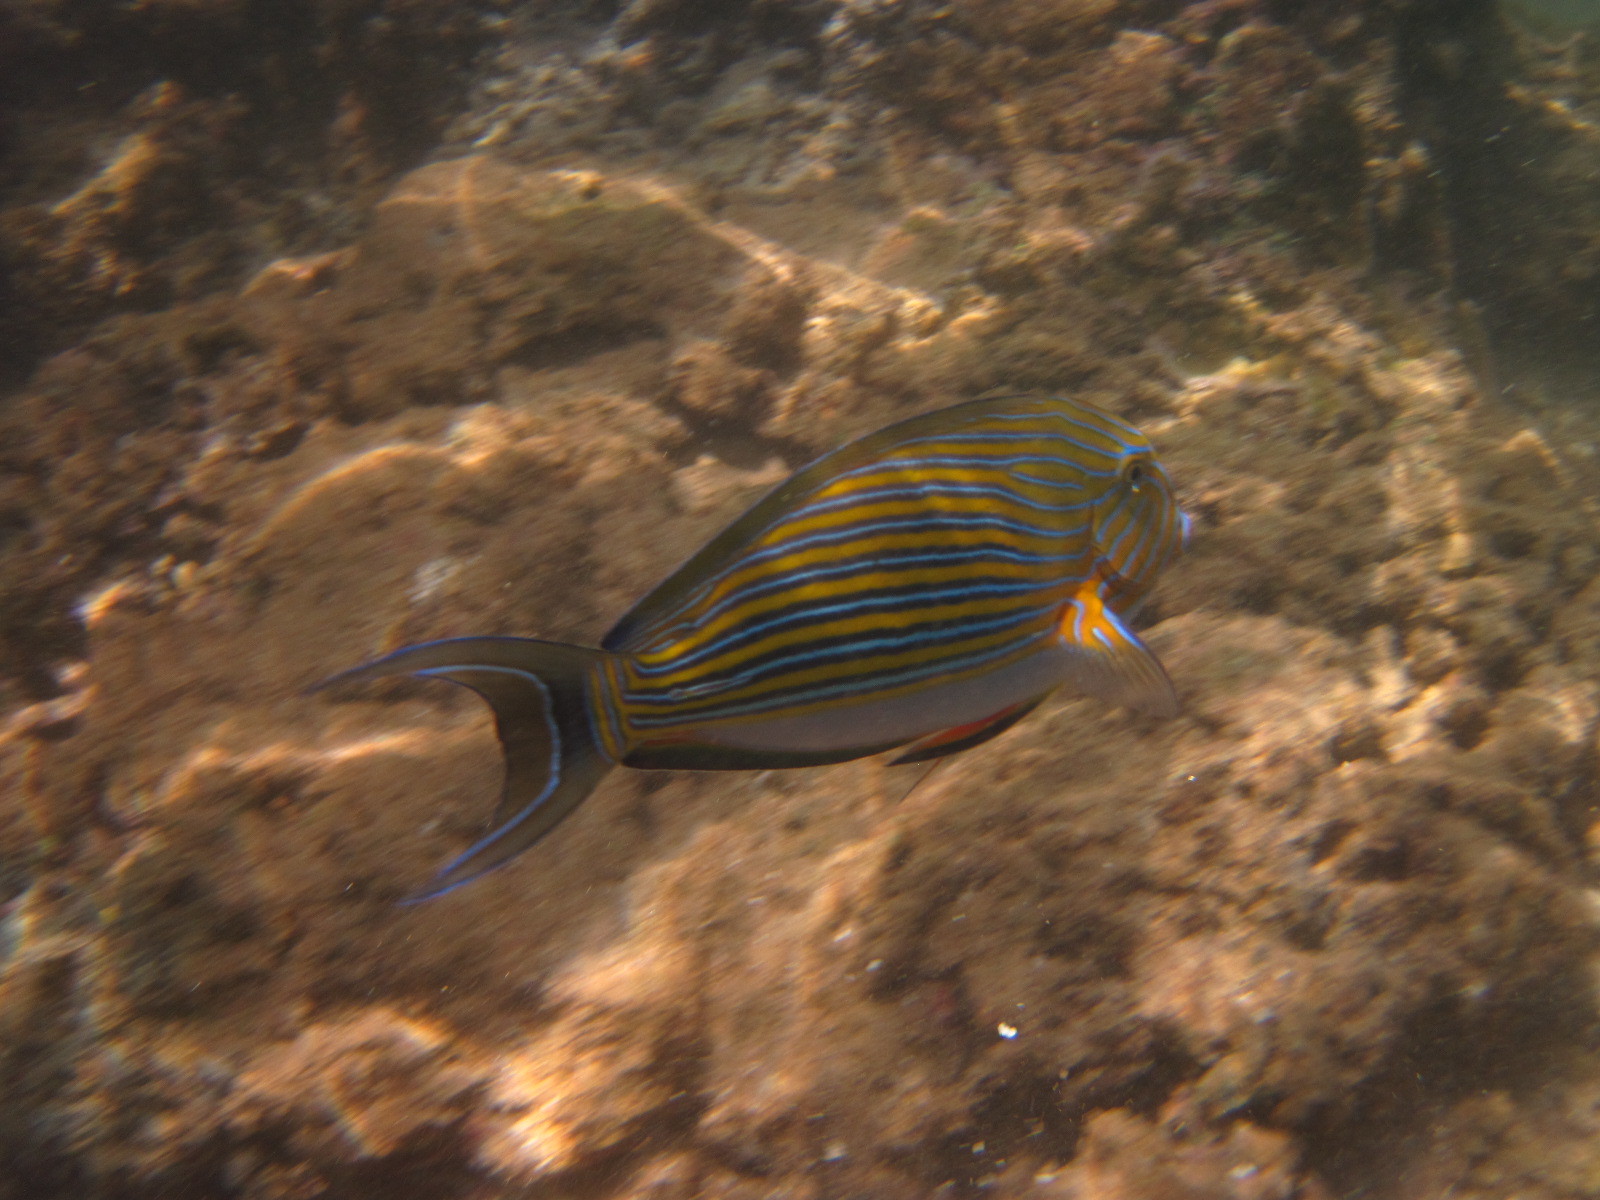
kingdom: Animalia
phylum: Chordata
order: Perciformes
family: Acanthuridae
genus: Acanthurus
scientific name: Acanthurus lineatus
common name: Striped surgeonfish
